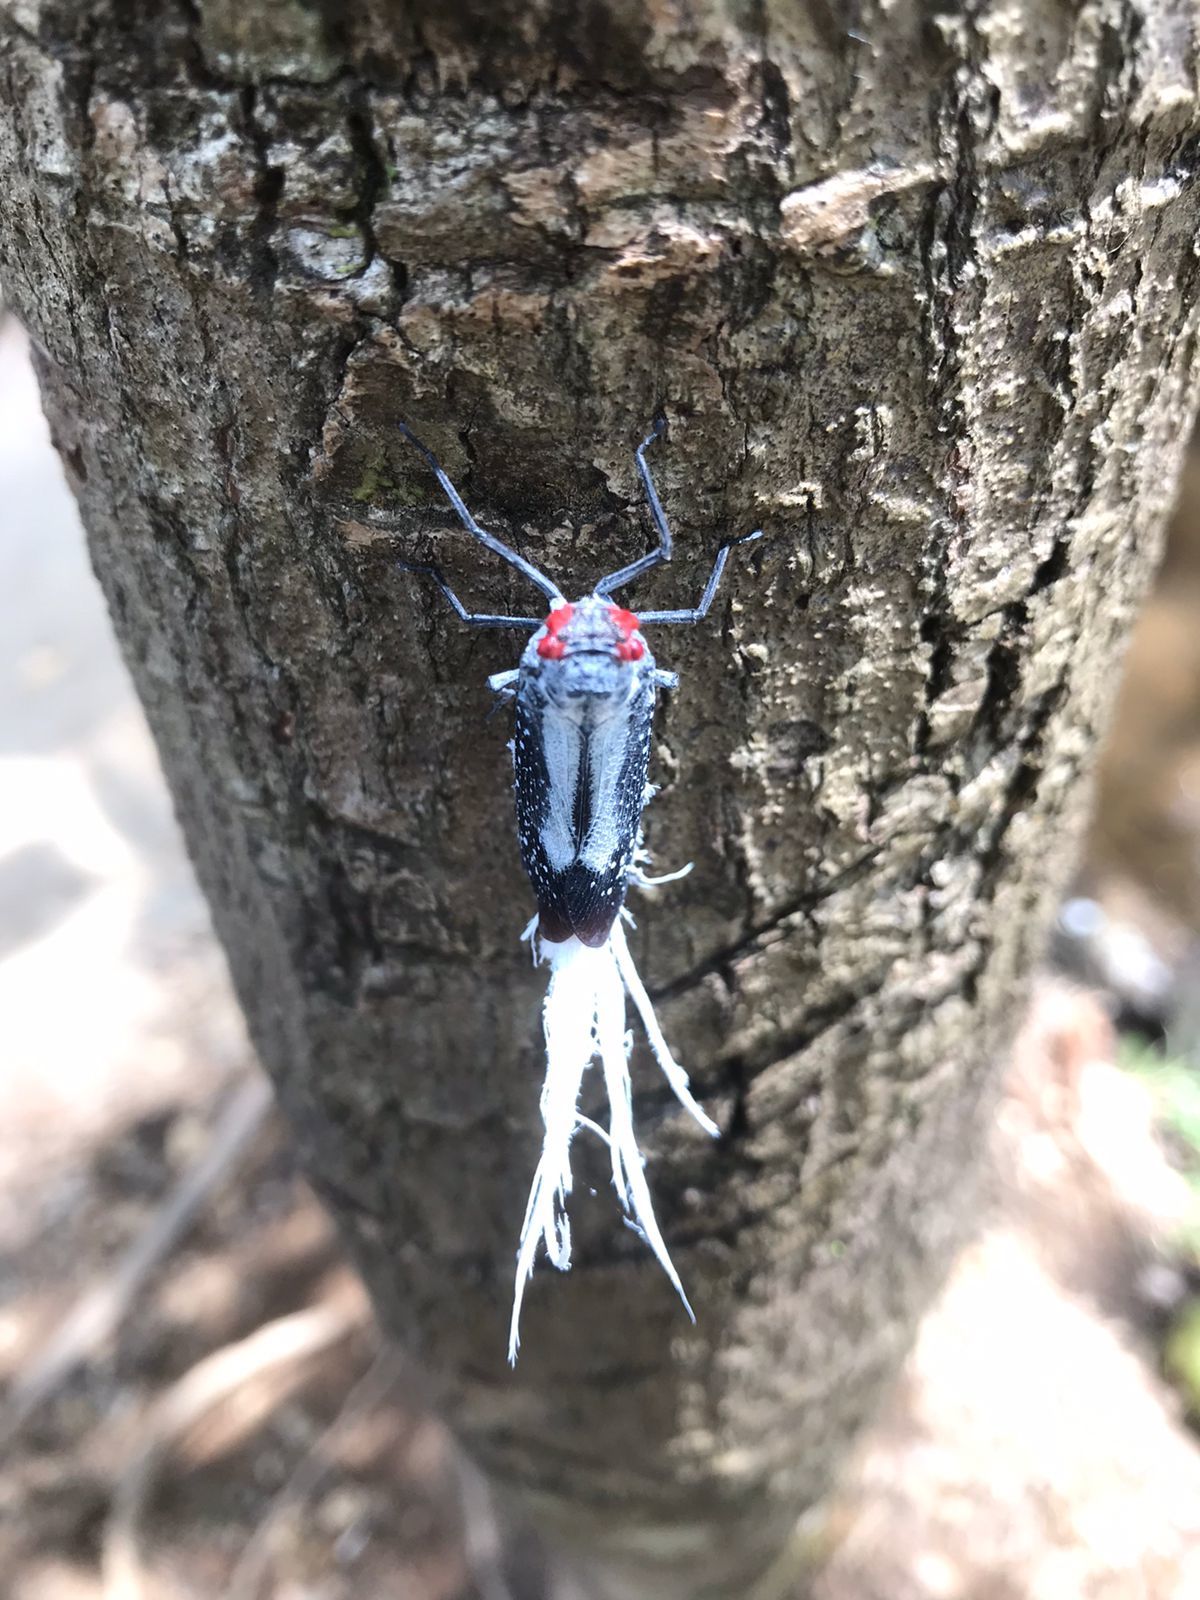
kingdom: Animalia
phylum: Arthropoda
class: Insecta
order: Hemiptera
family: Fulgoridae
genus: Lystra
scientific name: Lystra lanata
